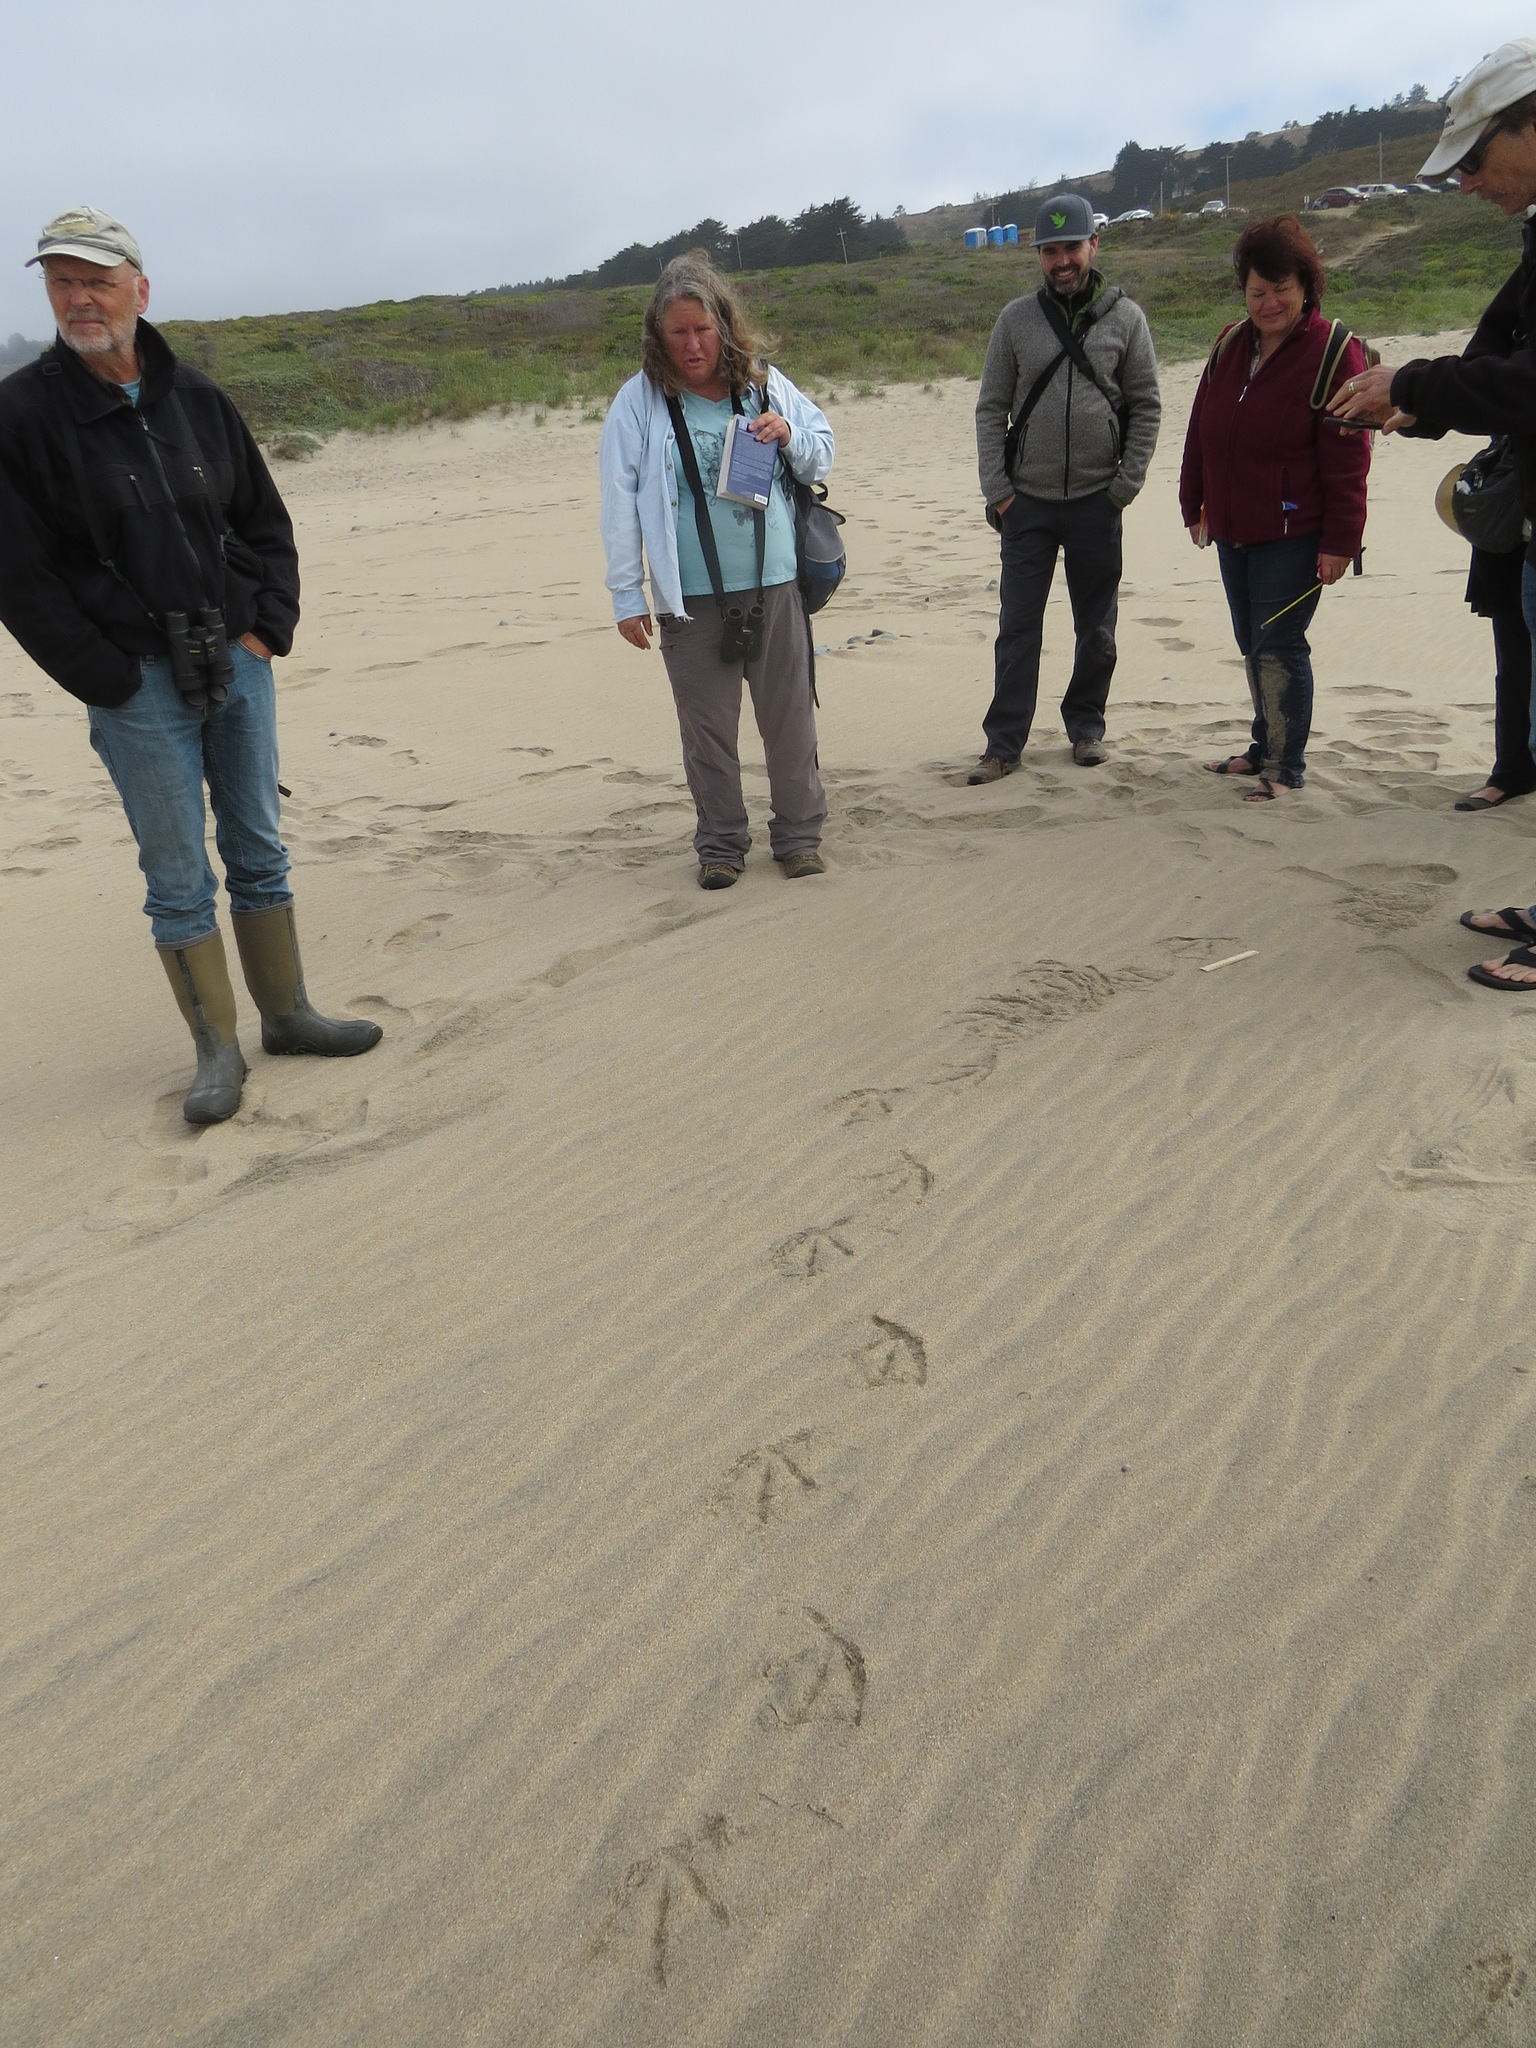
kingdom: Animalia
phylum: Chordata
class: Aves
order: Pelecaniformes
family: Pelecanidae
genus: Pelecanus
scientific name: Pelecanus occidentalis
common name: Brown pelican
